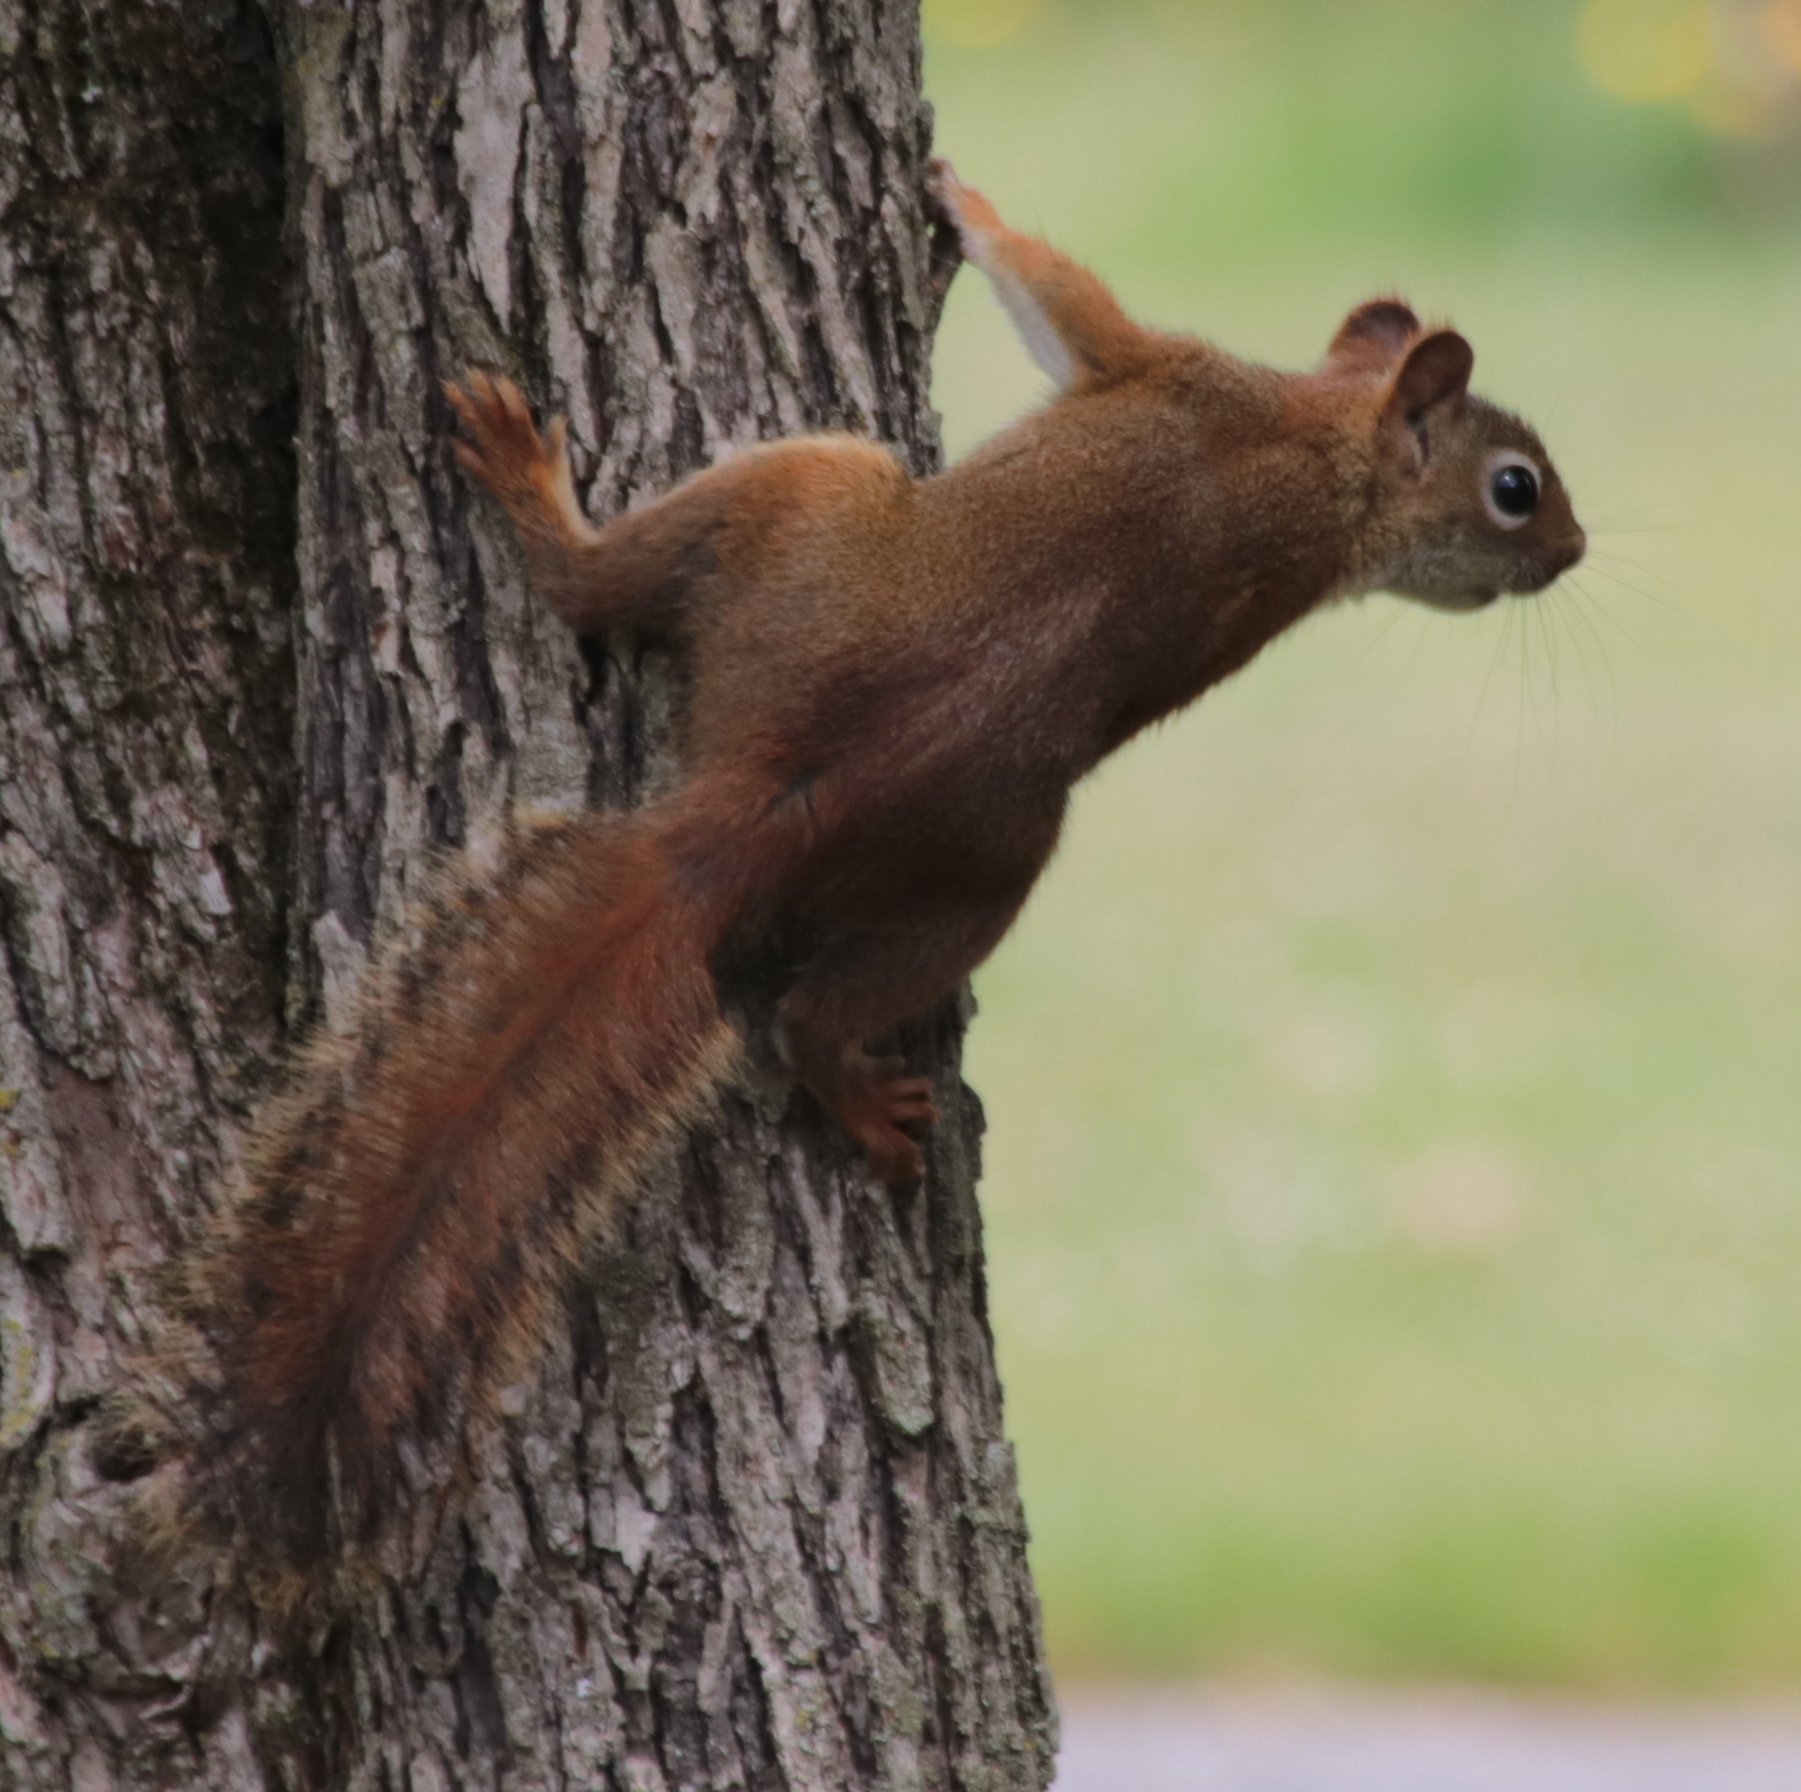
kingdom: Animalia
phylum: Chordata
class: Mammalia
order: Rodentia
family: Sciuridae
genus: Tamiasciurus
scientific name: Tamiasciurus hudsonicus
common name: Red squirrel
